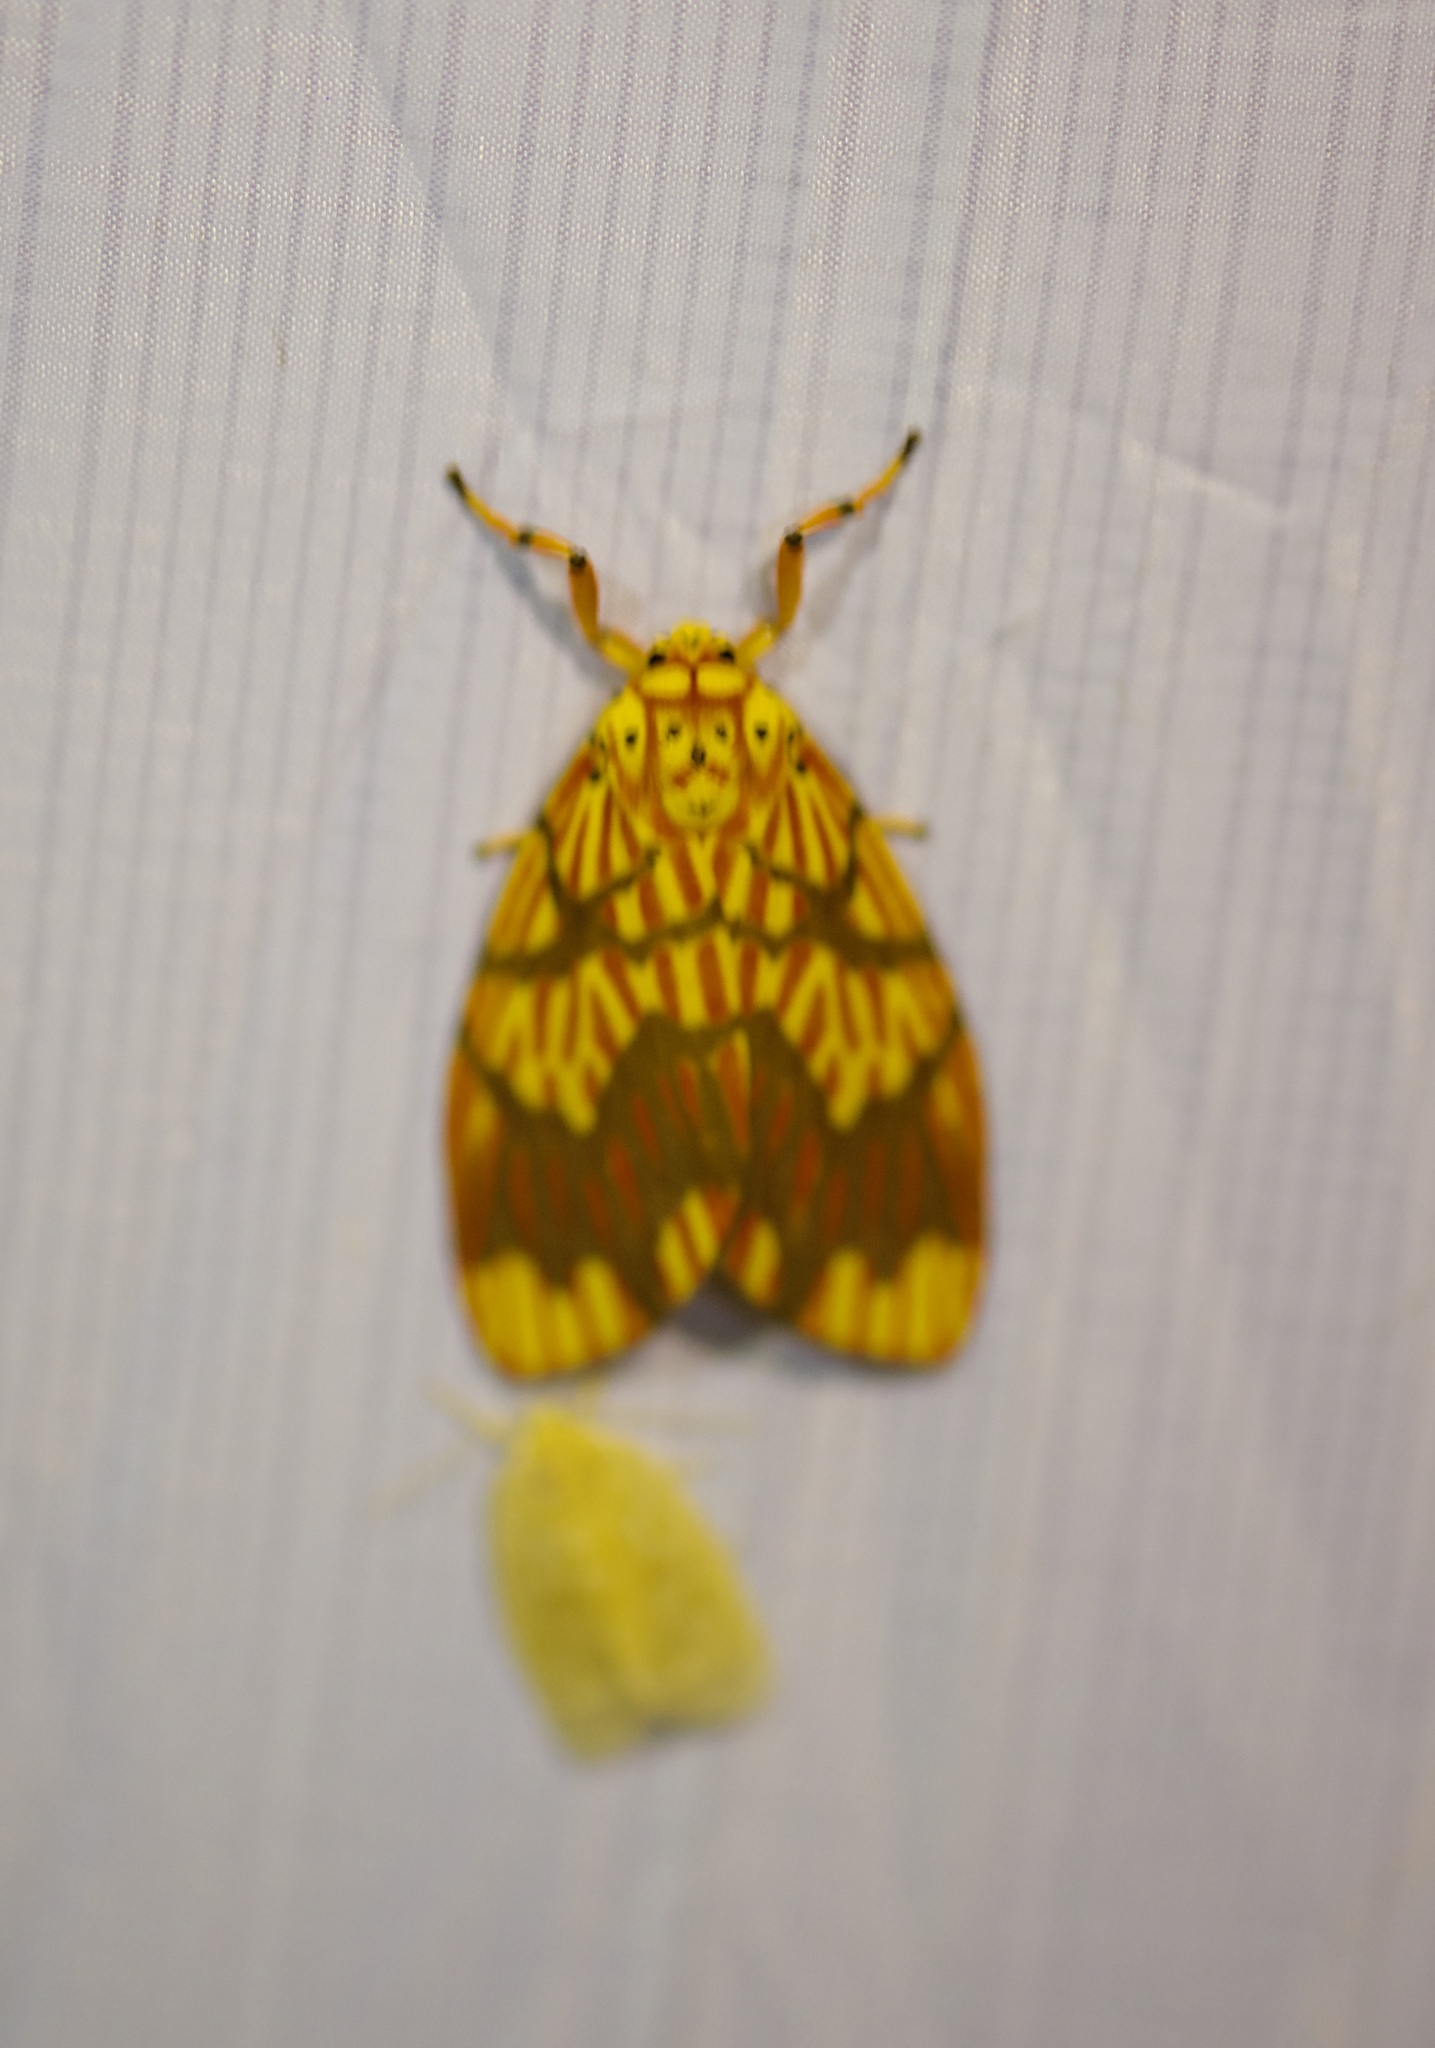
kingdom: Animalia
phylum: Arthropoda
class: Insecta
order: Lepidoptera
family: Erebidae
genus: Barsine
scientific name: Barsine euprepia
